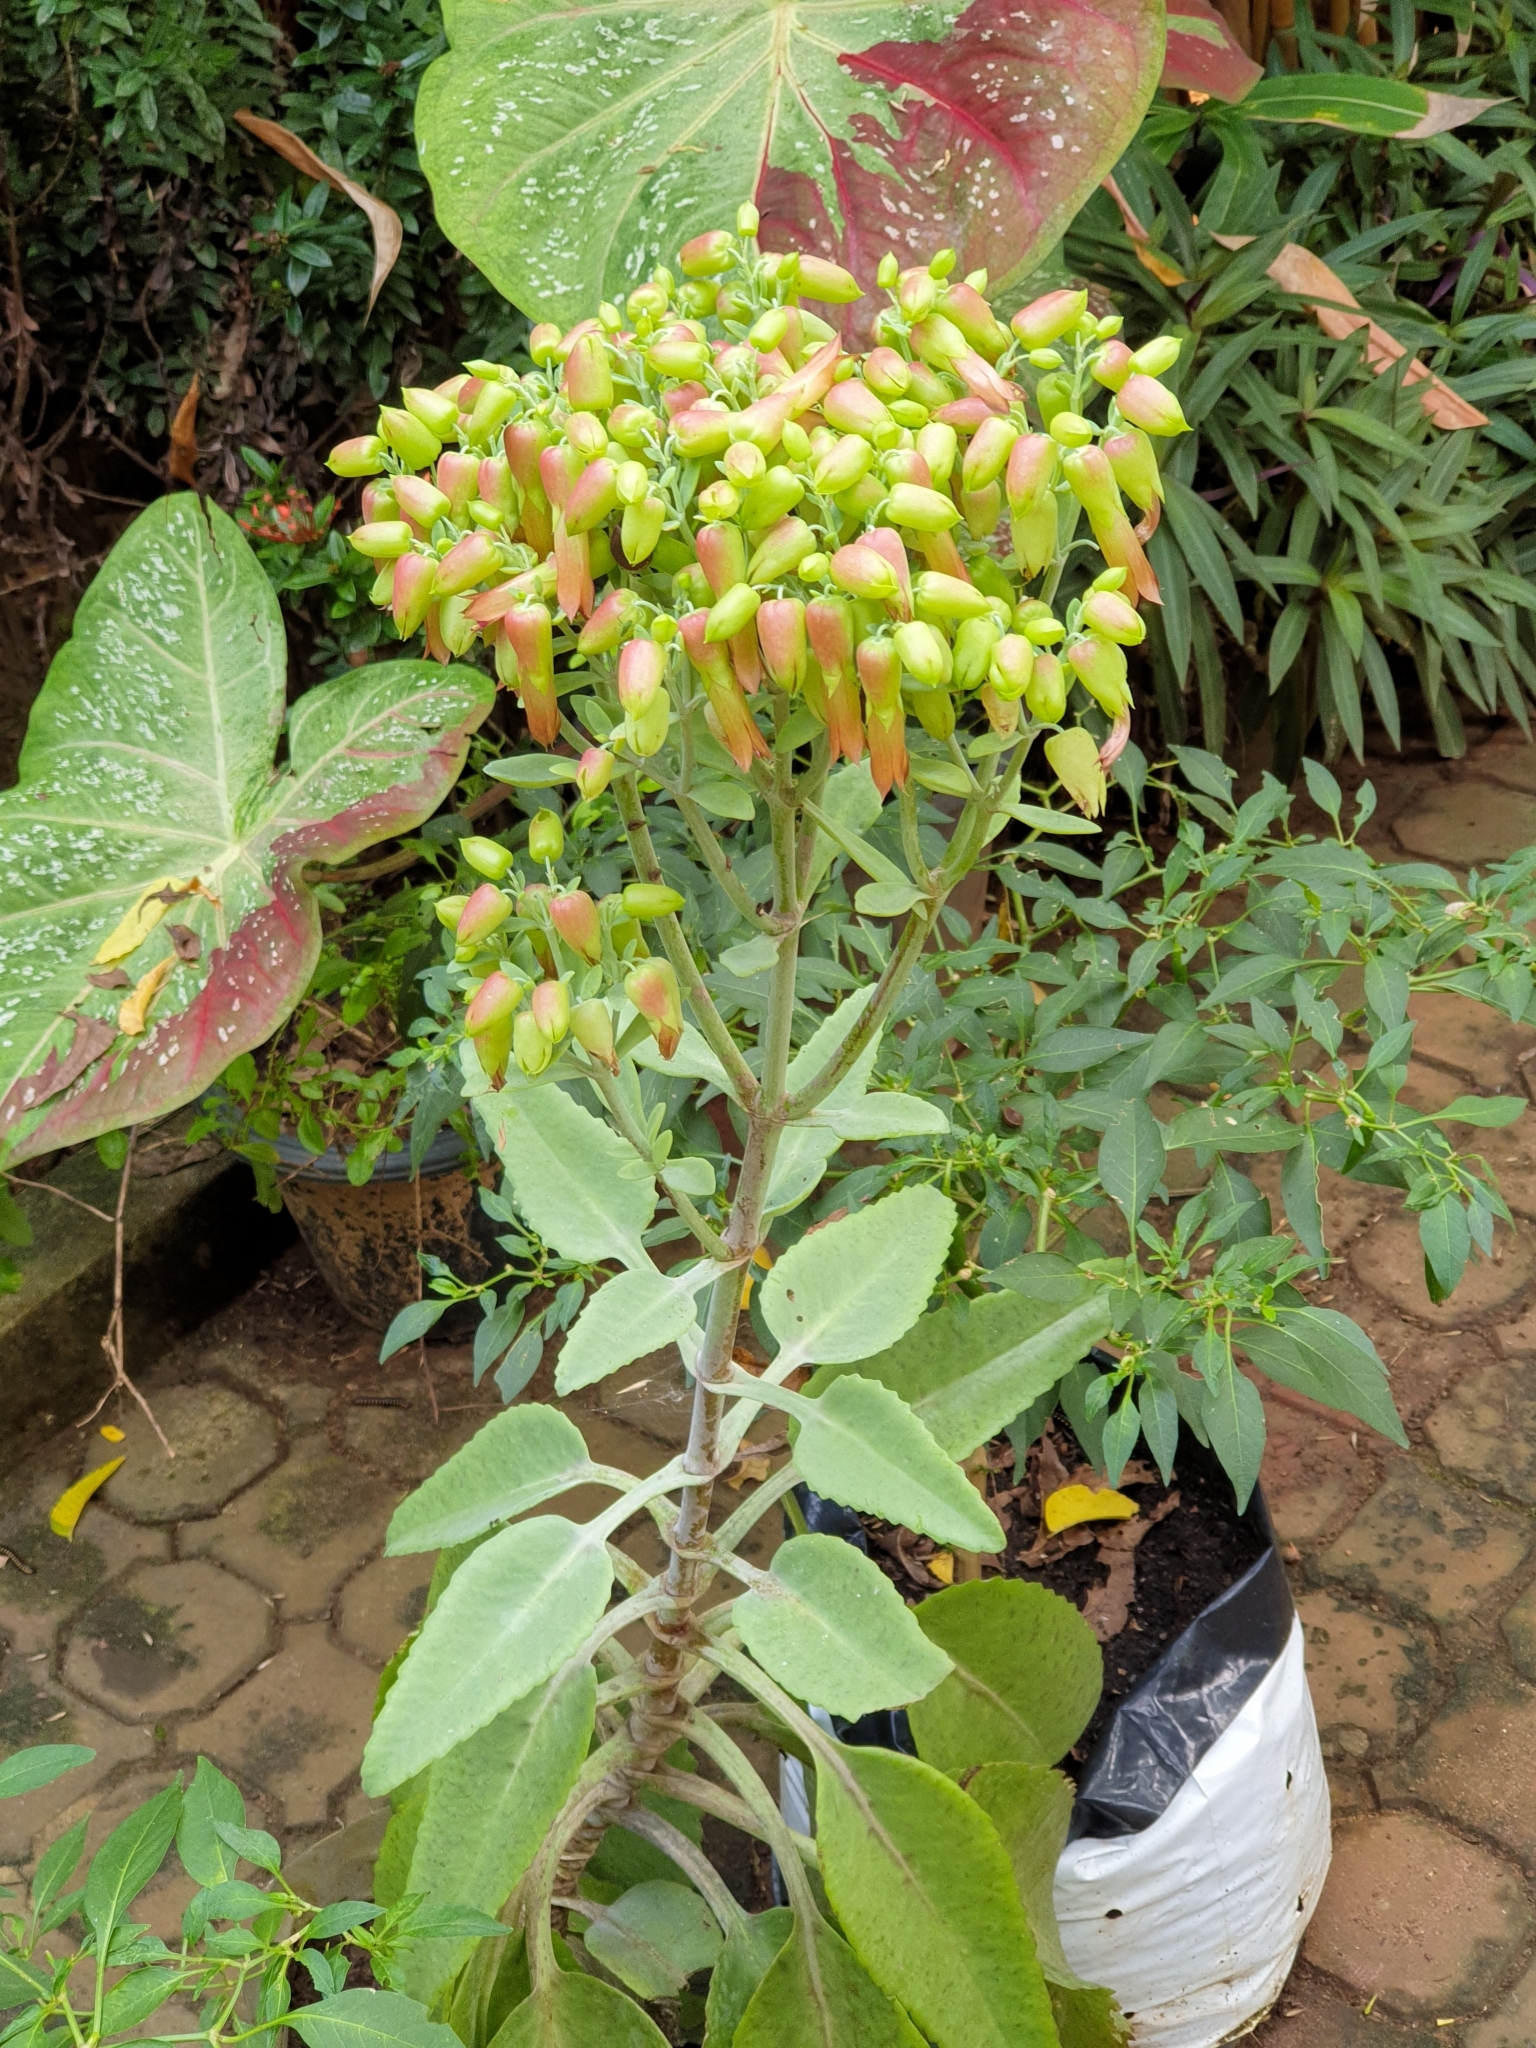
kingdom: Plantae
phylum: Tracheophyta
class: Magnoliopsida
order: Saxifragales
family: Crassulaceae
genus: Kalanchoe
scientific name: Kalanchoe gastonis-bonnieri
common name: Palm beachbells
